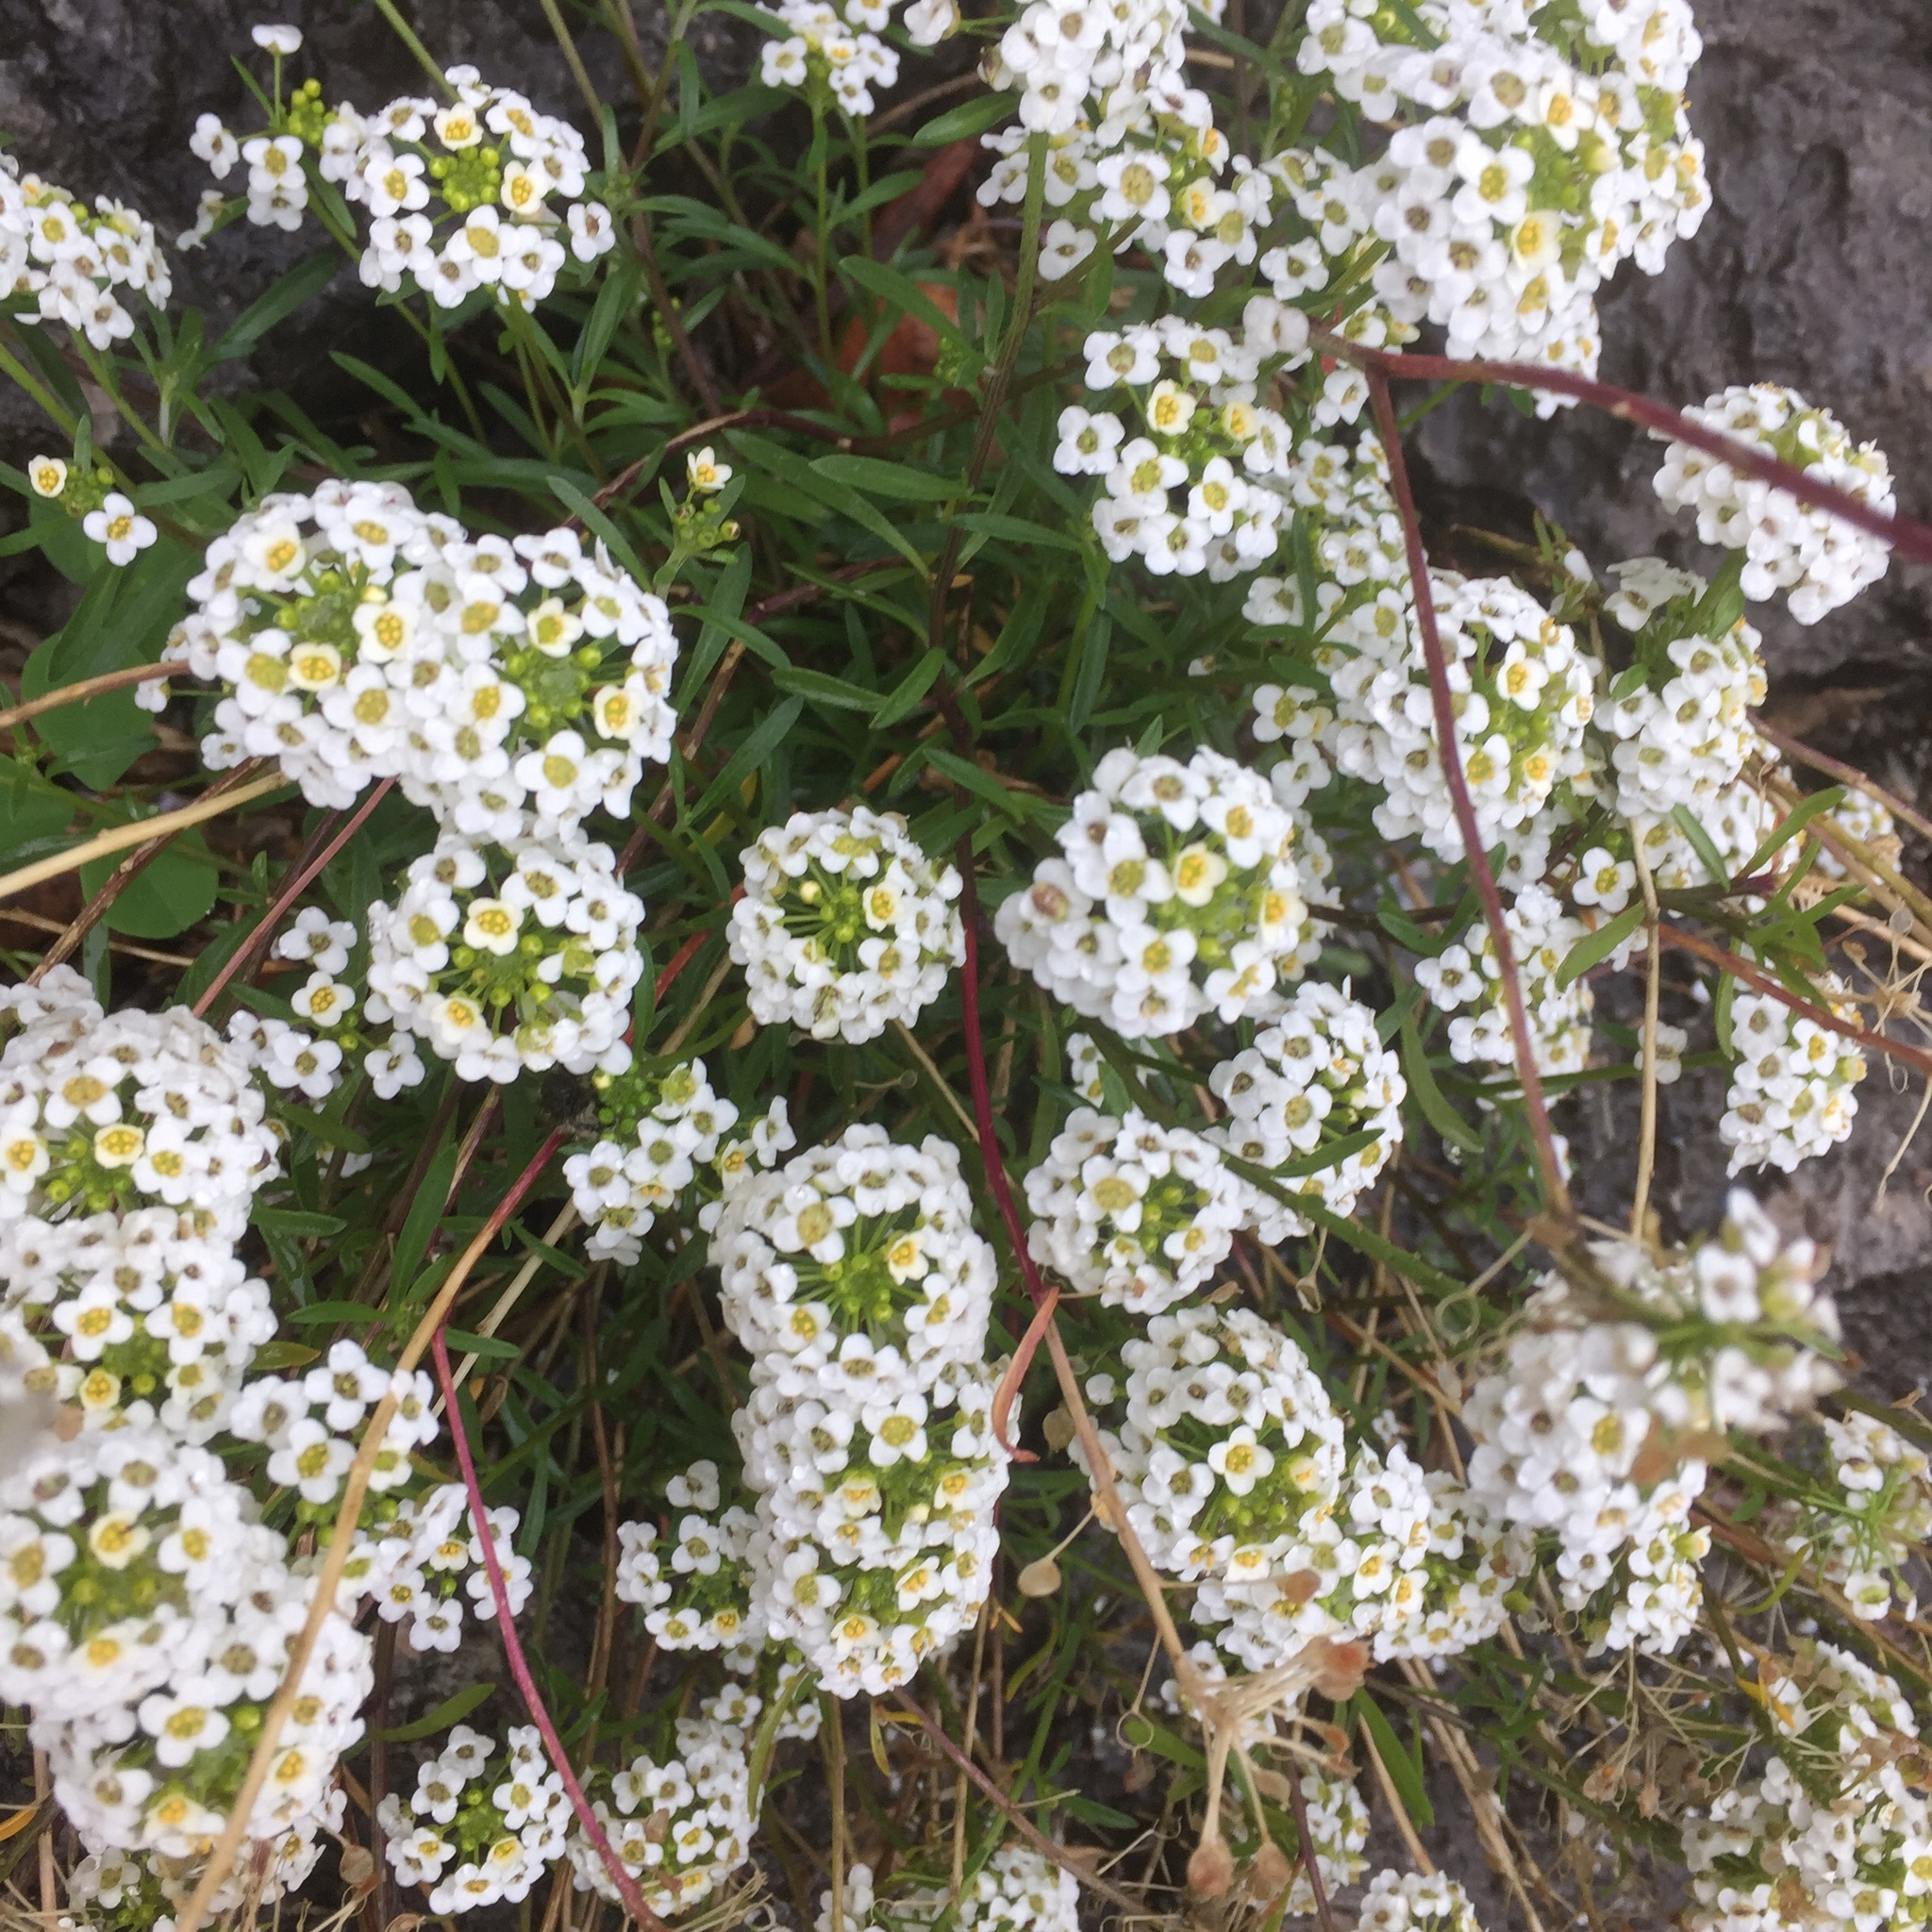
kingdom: Plantae
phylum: Tracheophyta
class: Magnoliopsida
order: Brassicales
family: Brassicaceae
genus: Lobularia
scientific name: Lobularia maritima
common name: Sweet alison
